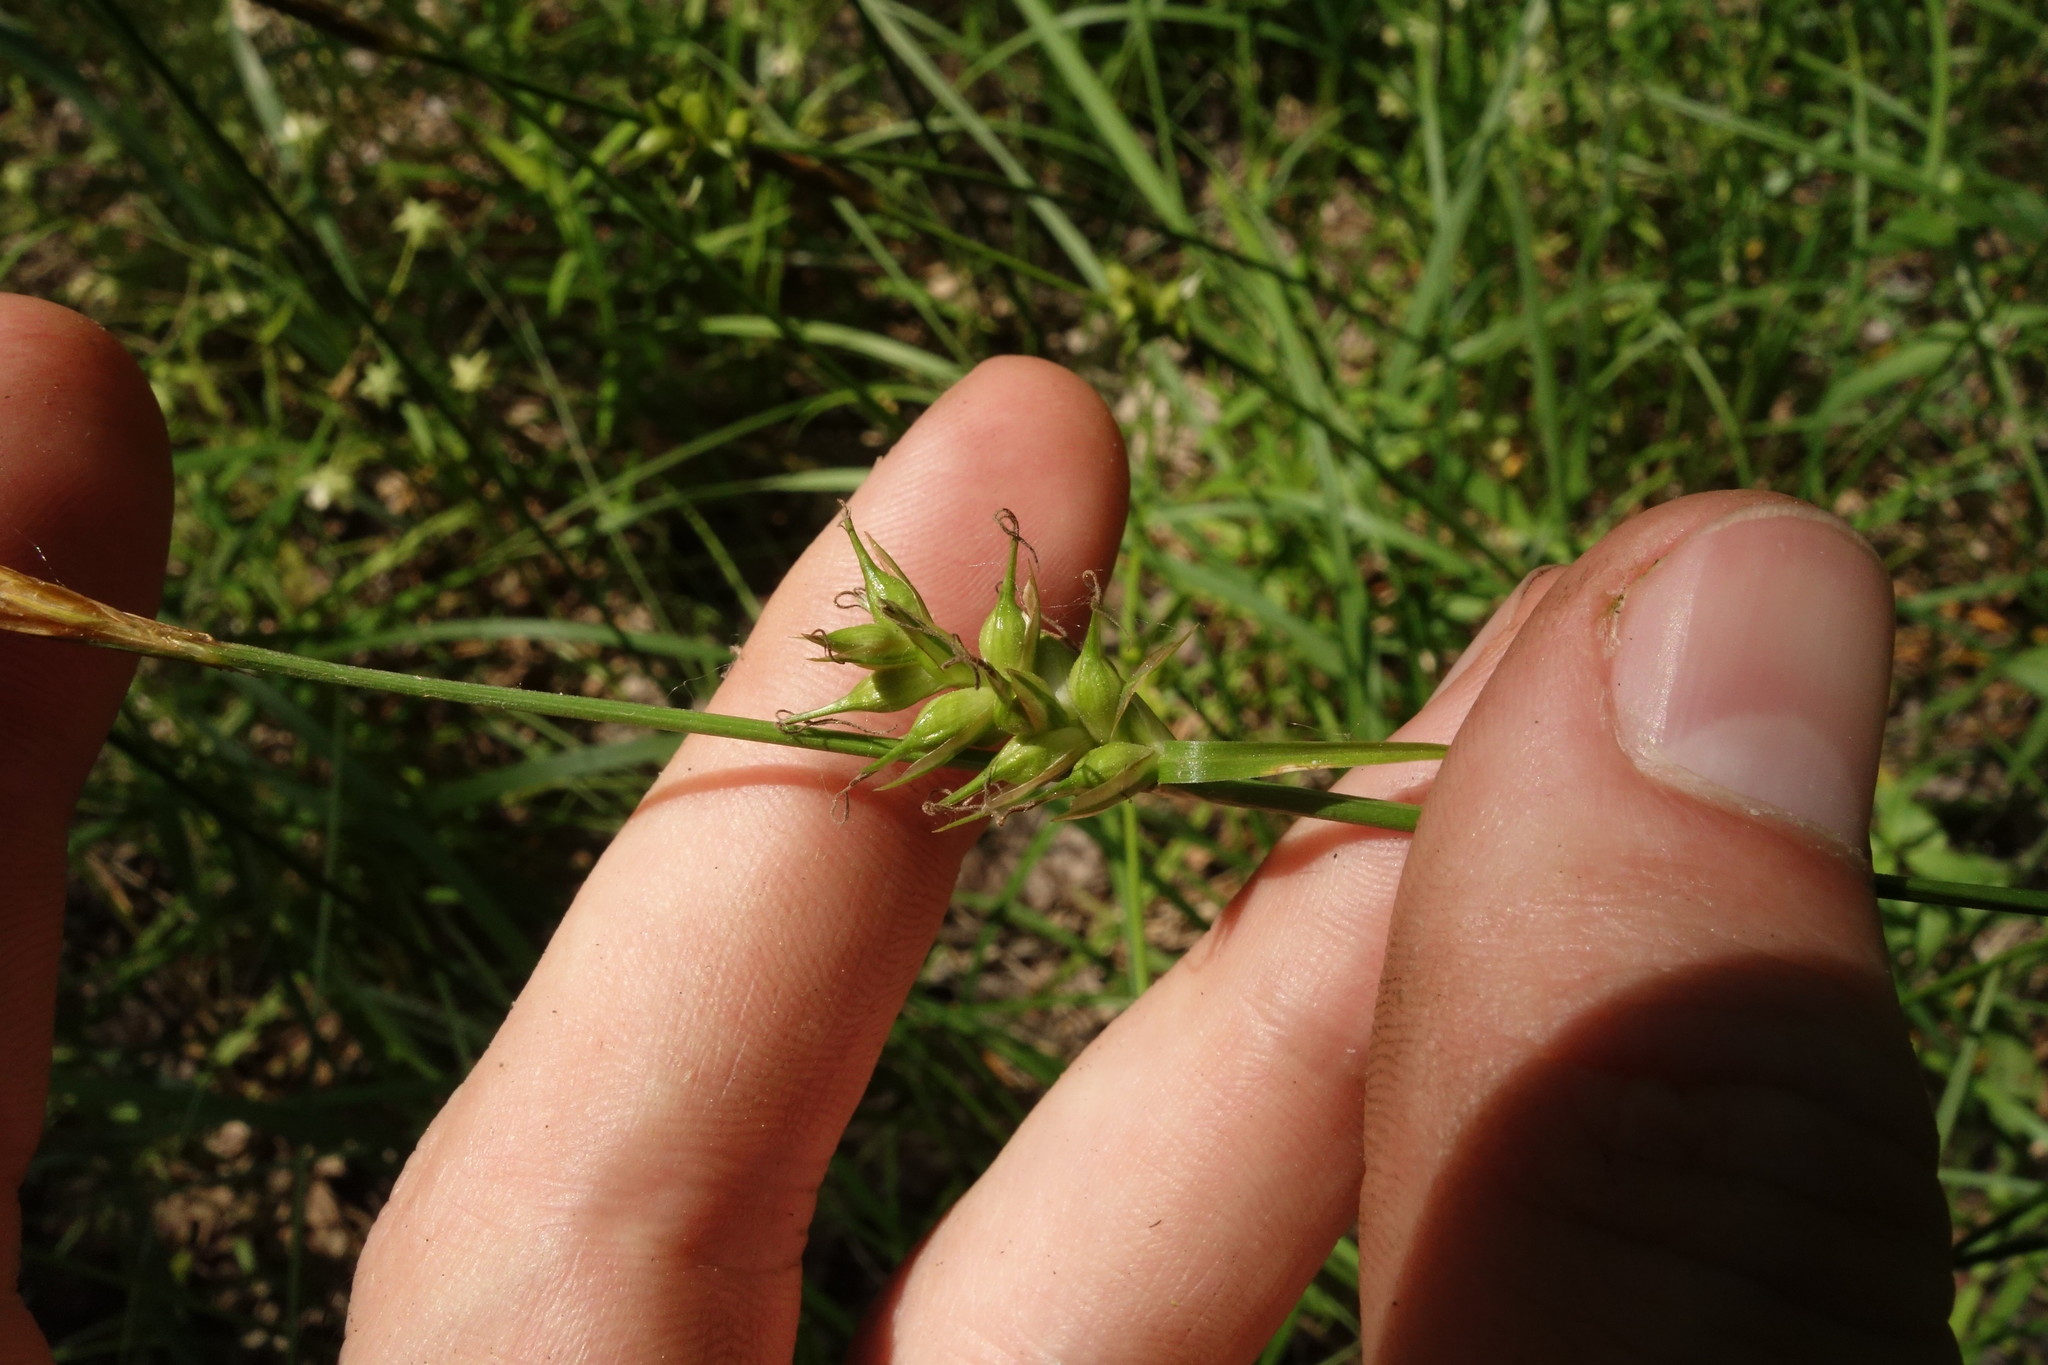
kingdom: Plantae
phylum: Tracheophyta
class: Liliopsida
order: Poales
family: Cyperaceae
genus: Carex
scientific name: Carex michelii
